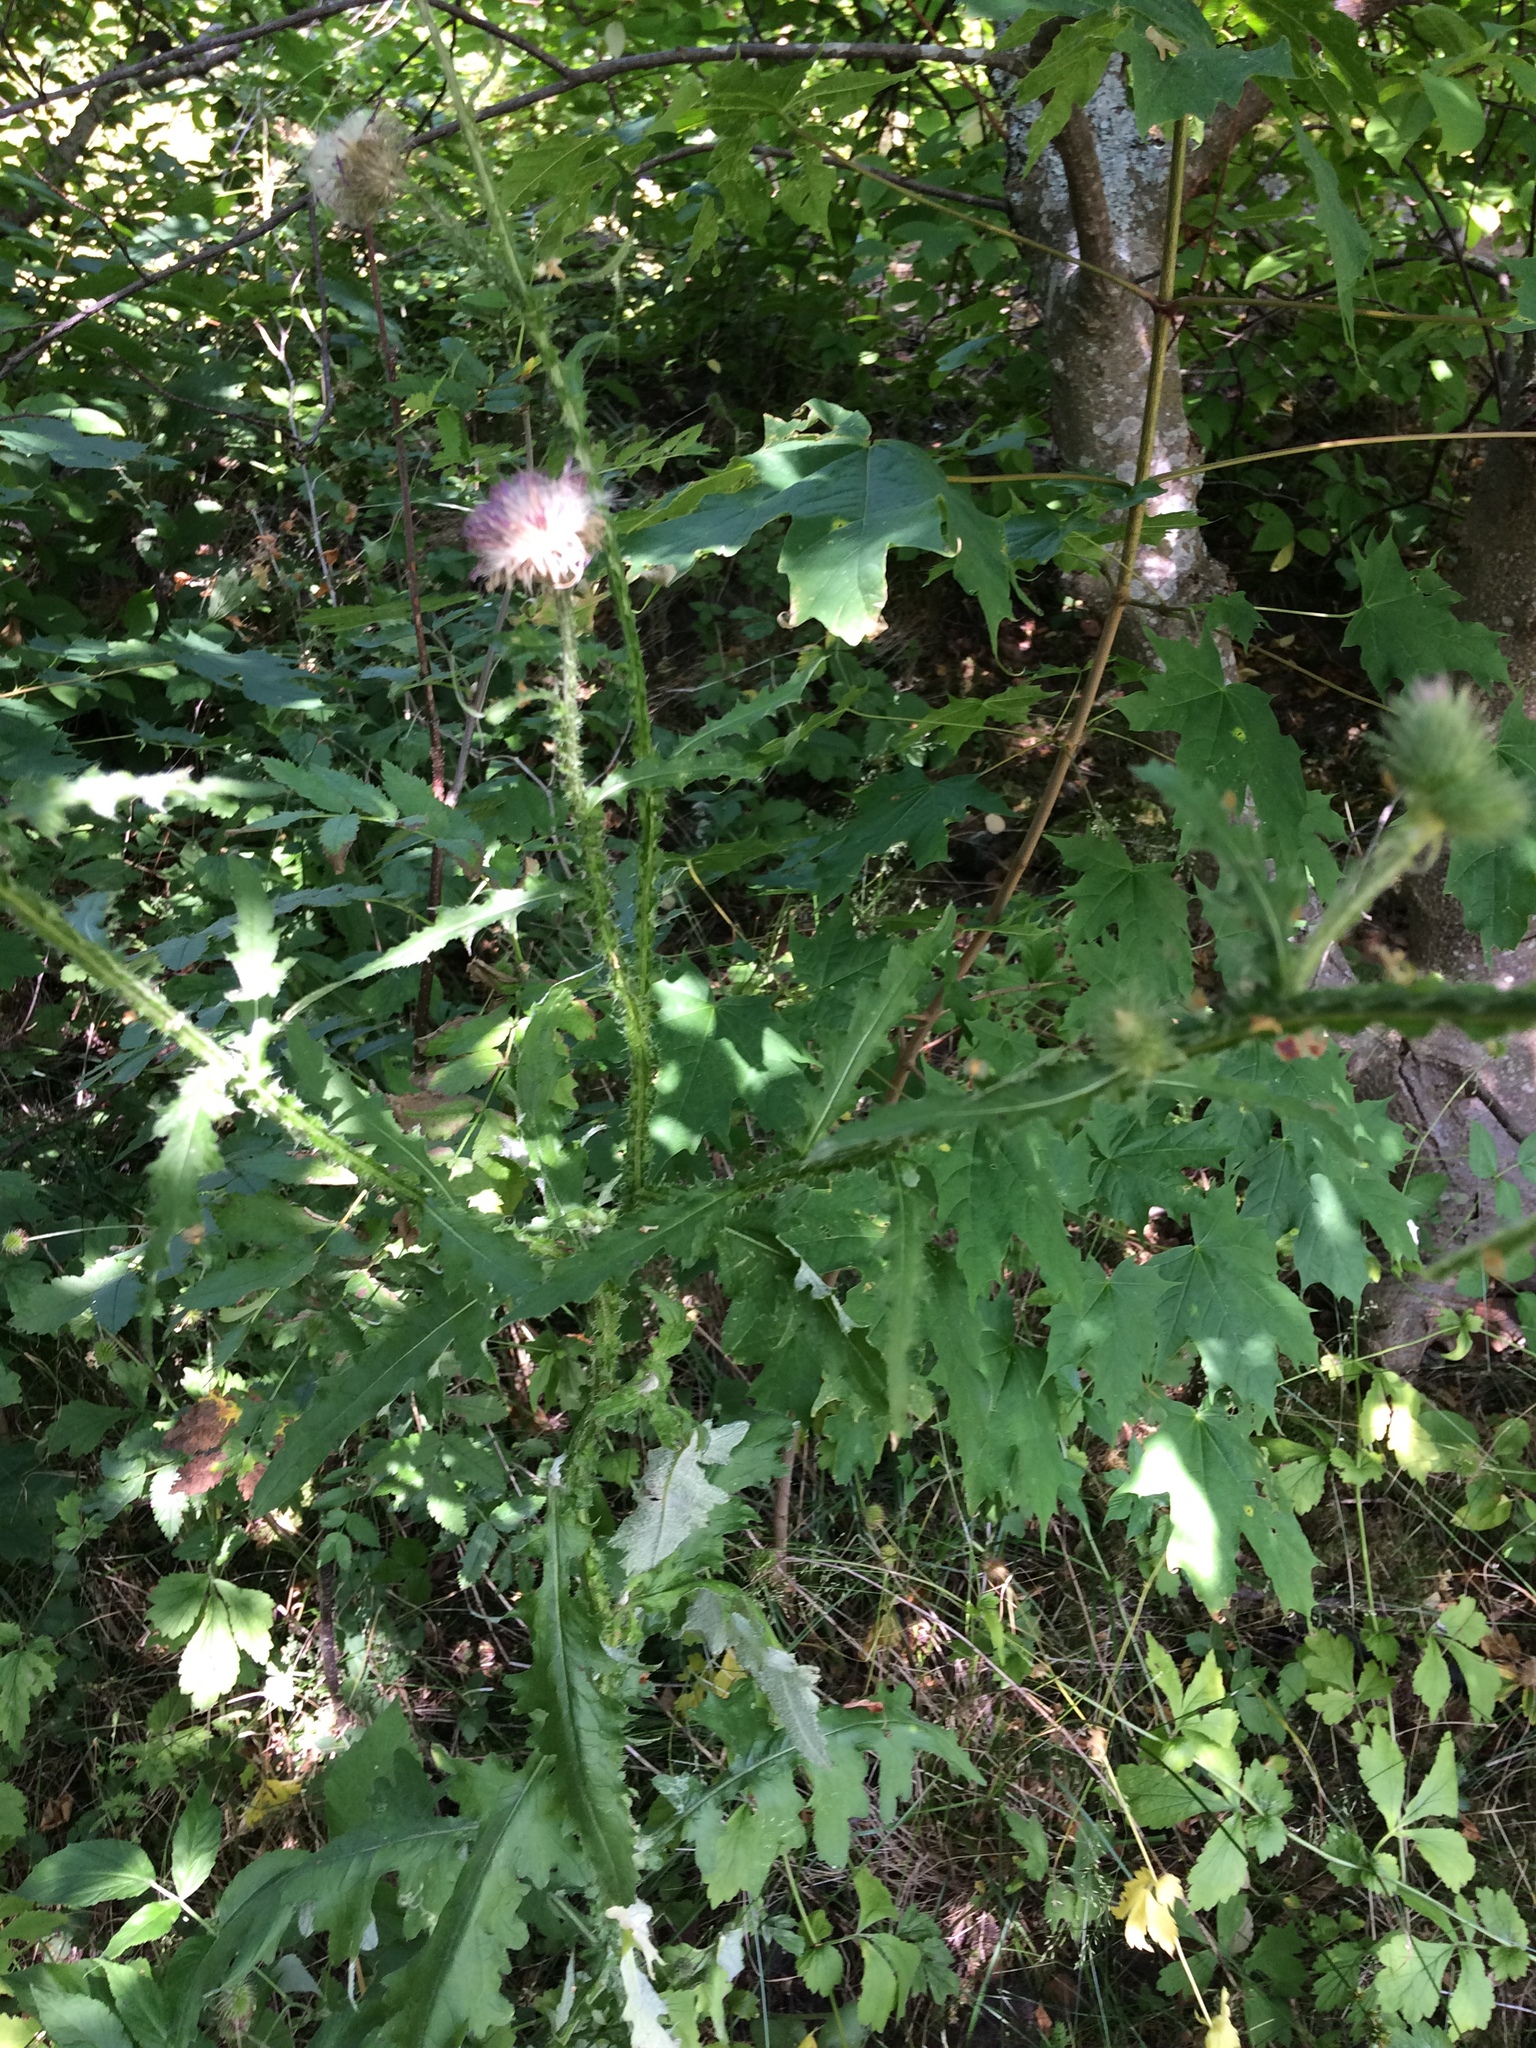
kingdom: Plantae
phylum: Tracheophyta
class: Magnoliopsida
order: Asterales
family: Asteraceae
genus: Carduus
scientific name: Carduus crispus
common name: Welted thistle
